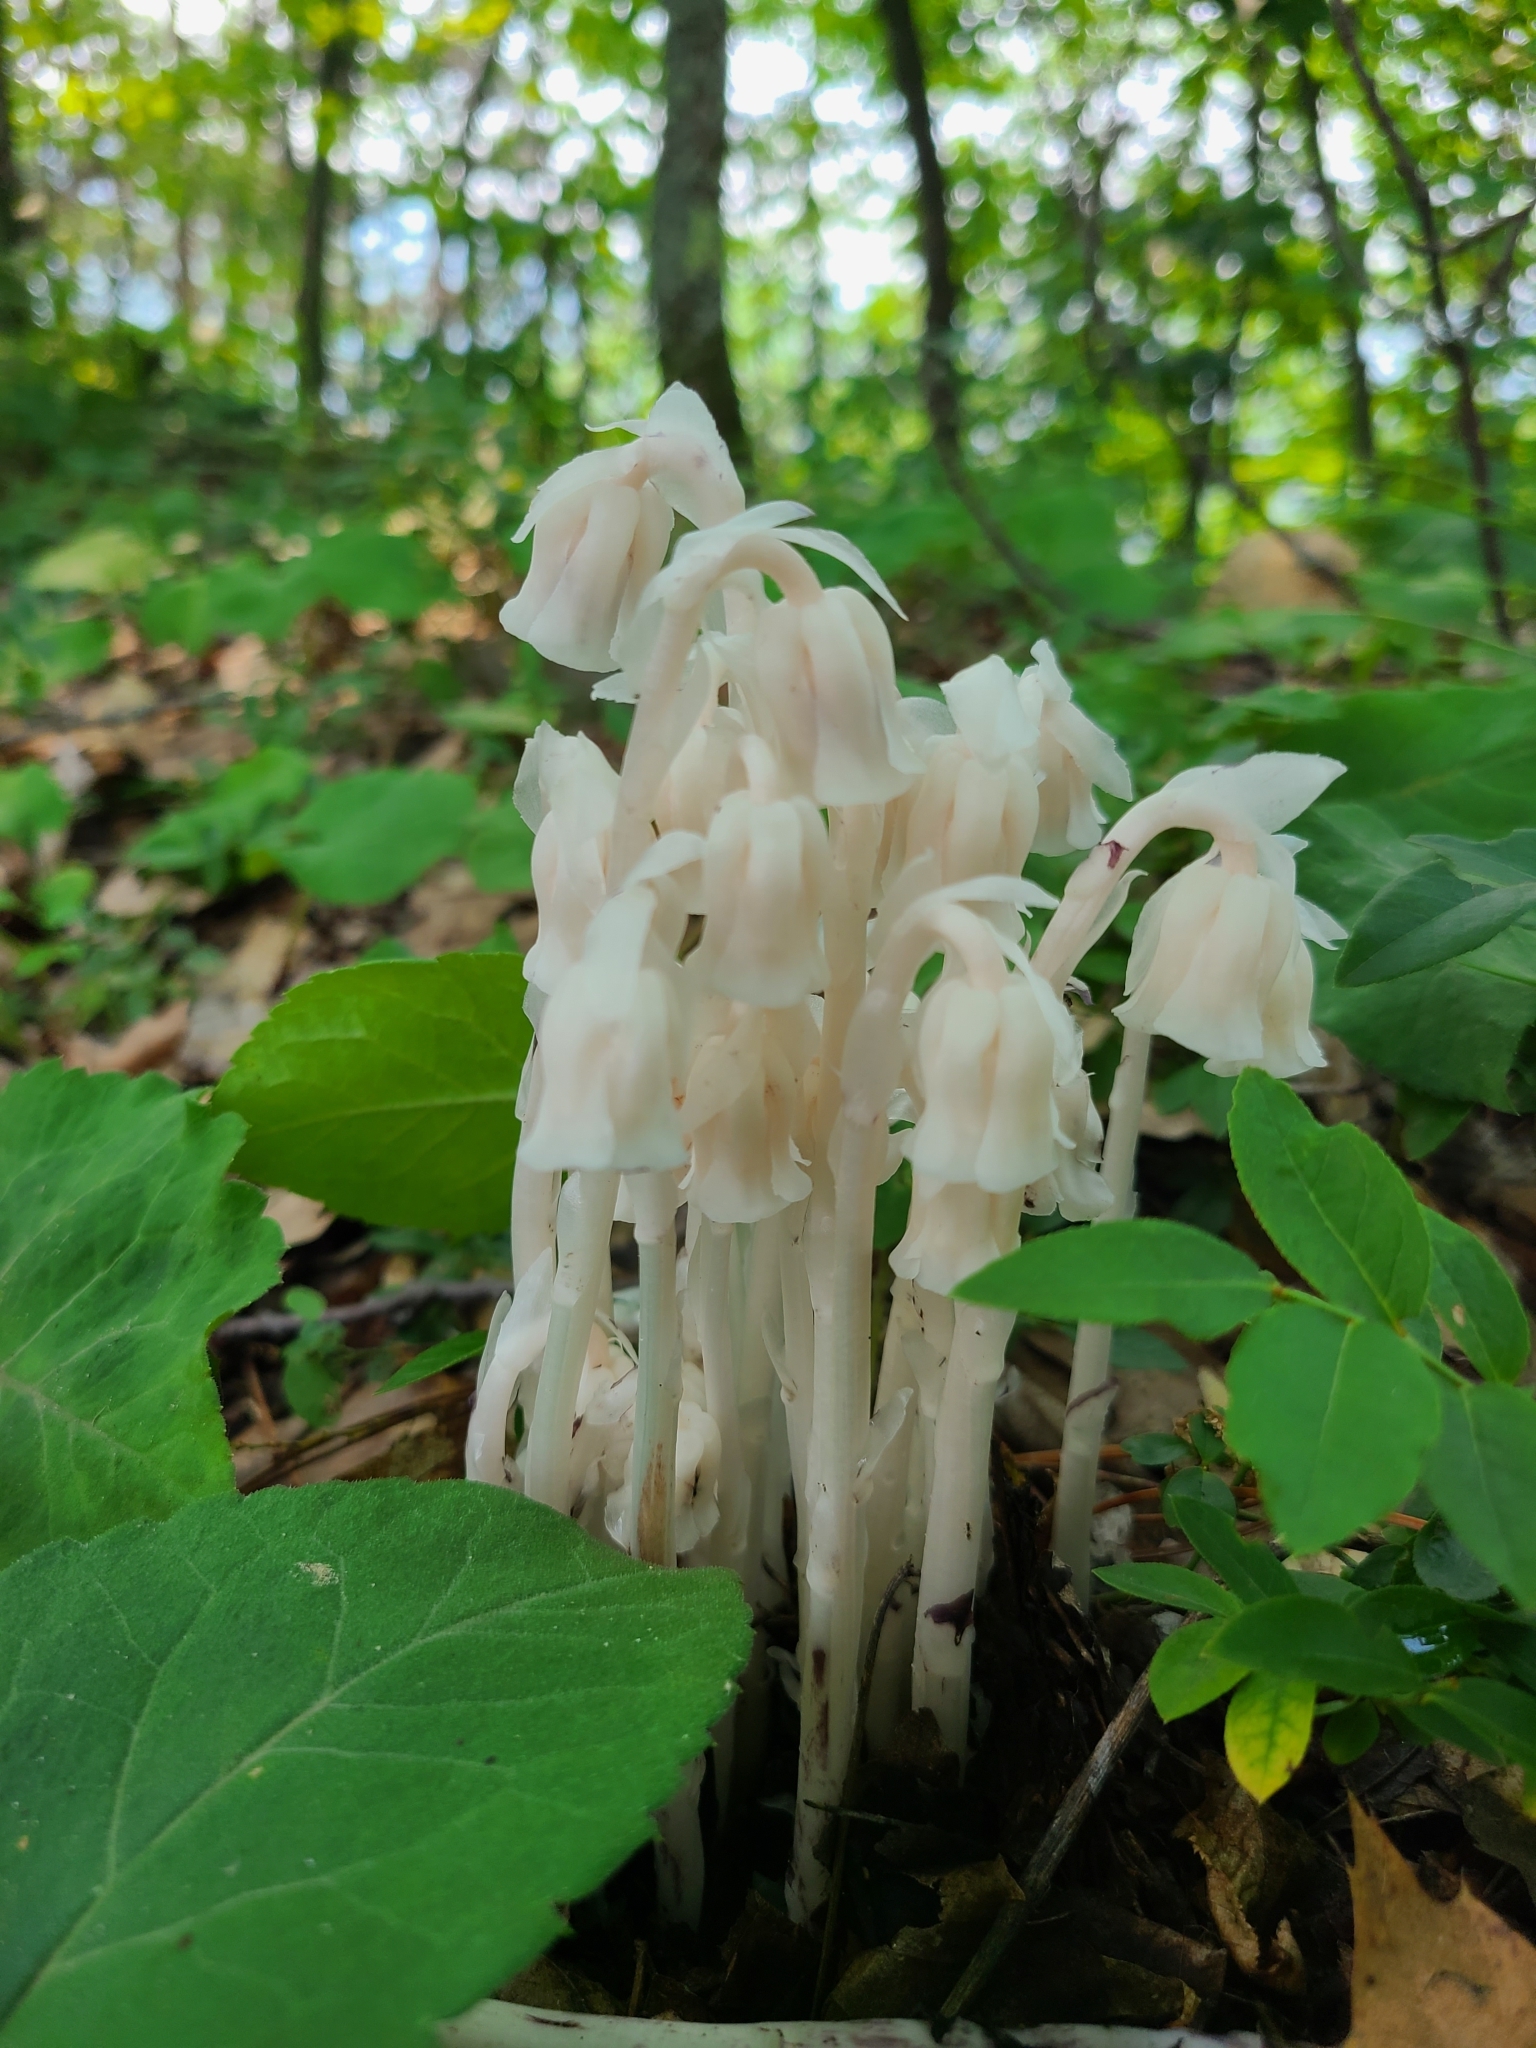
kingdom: Plantae
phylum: Tracheophyta
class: Magnoliopsida
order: Ericales
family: Ericaceae
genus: Monotropa
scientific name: Monotropa uniflora
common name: Convulsion root
